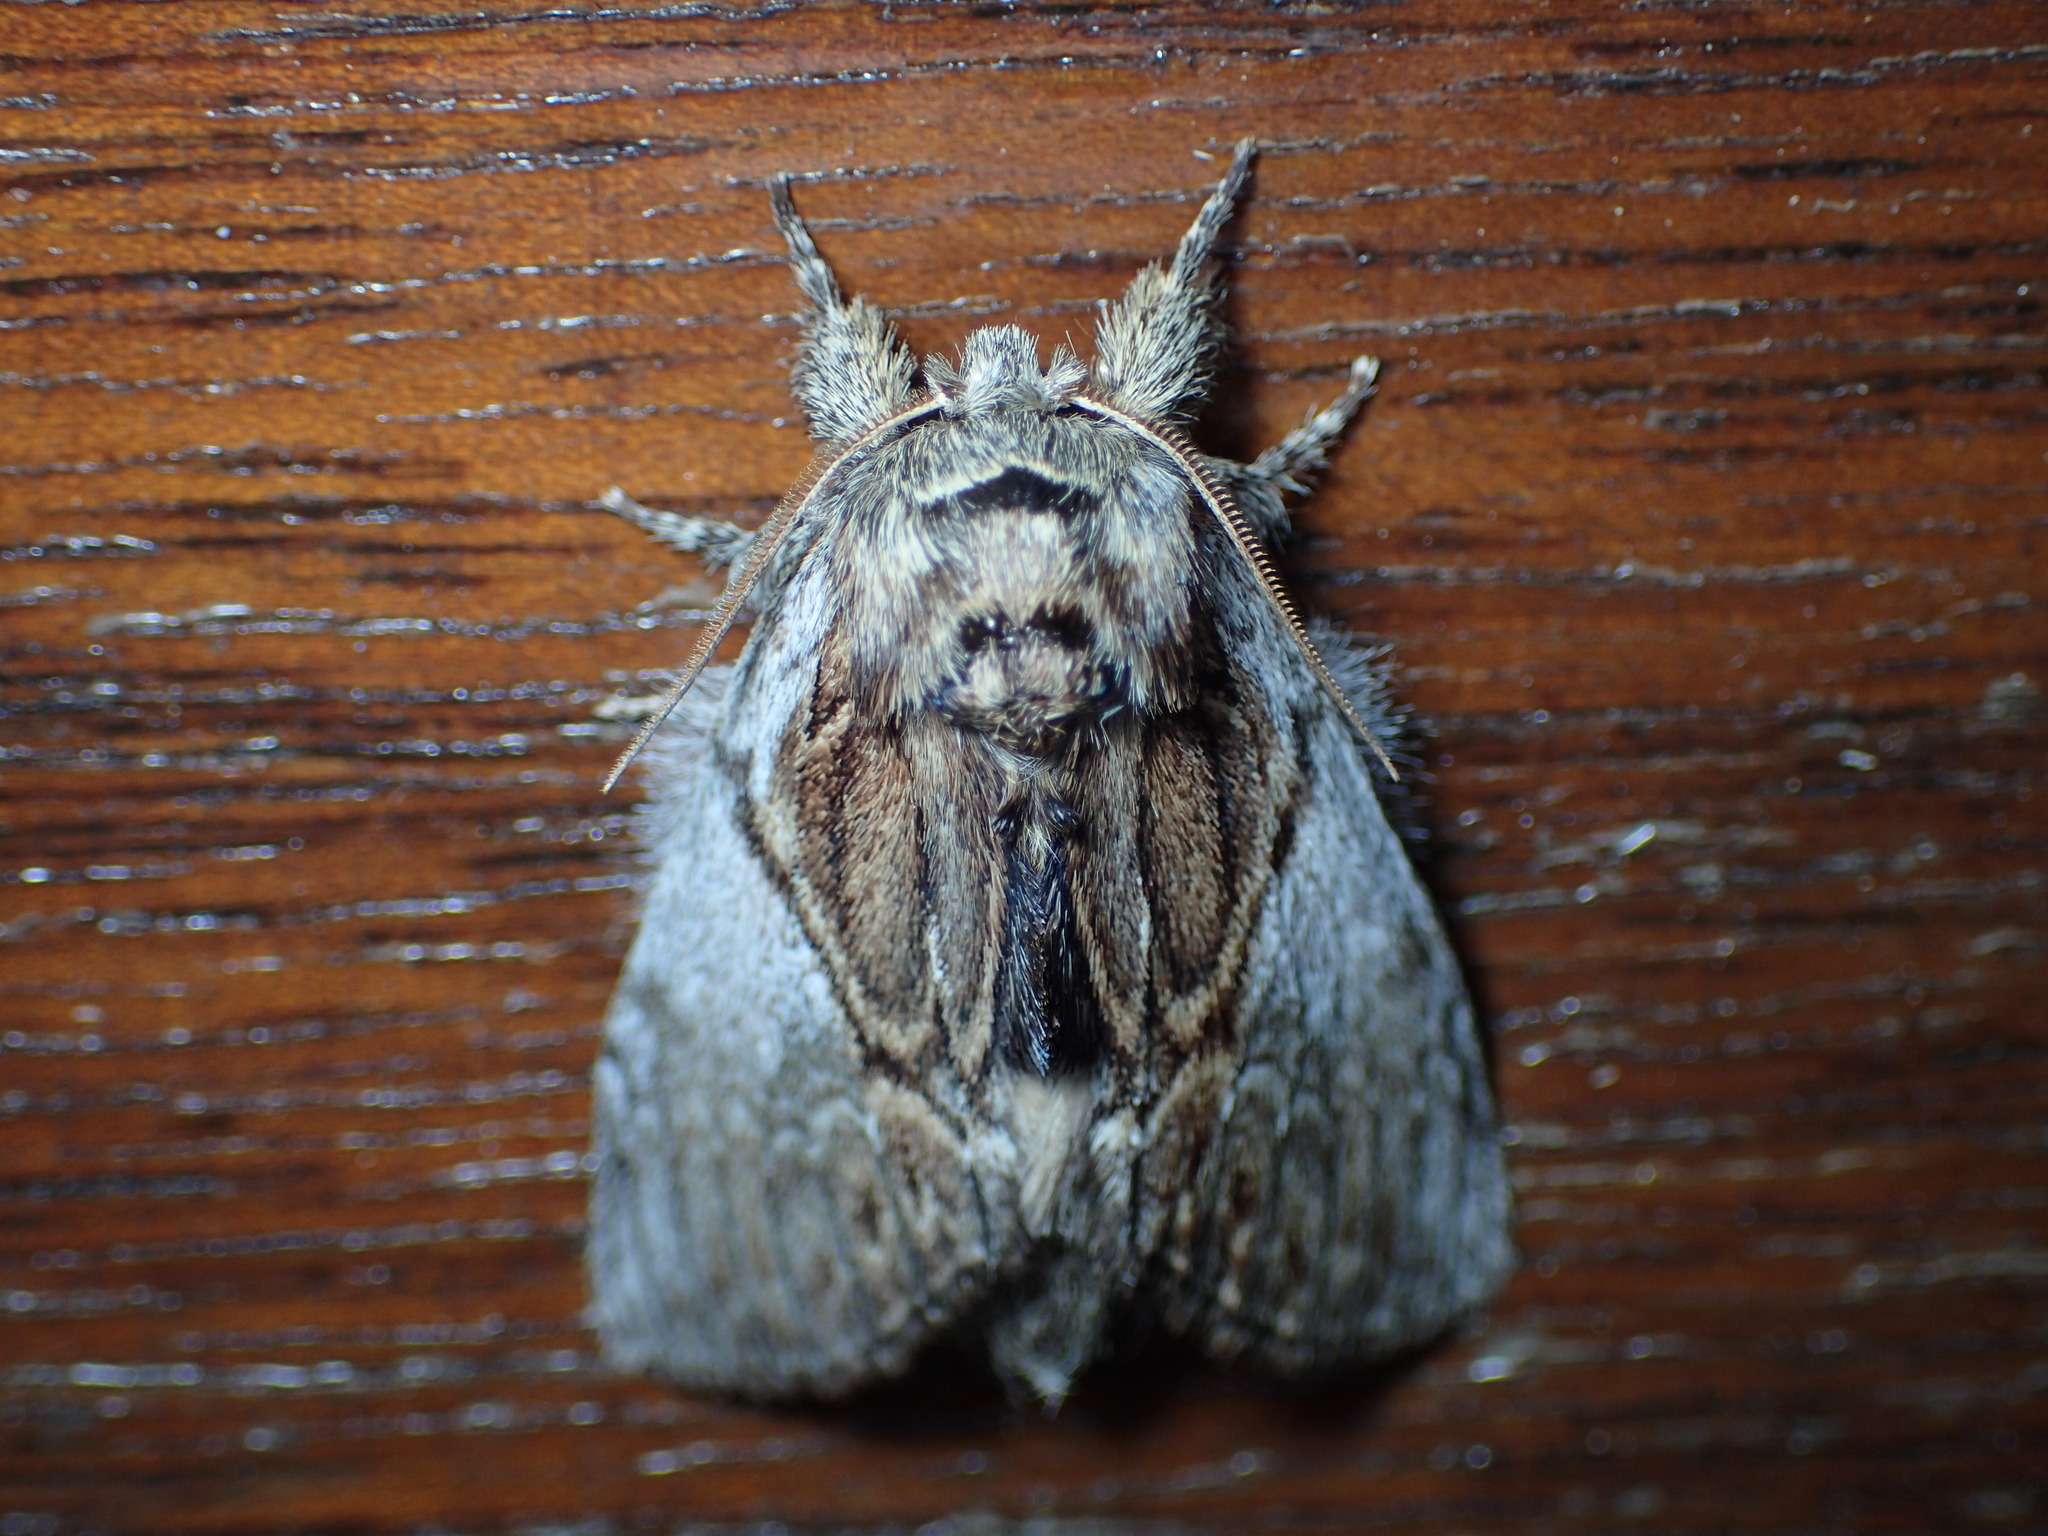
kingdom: Animalia
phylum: Arthropoda
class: Insecta
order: Lepidoptera
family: Notodontidae
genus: Peridea
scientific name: Peridea basitriens
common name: Oval-based prominent
